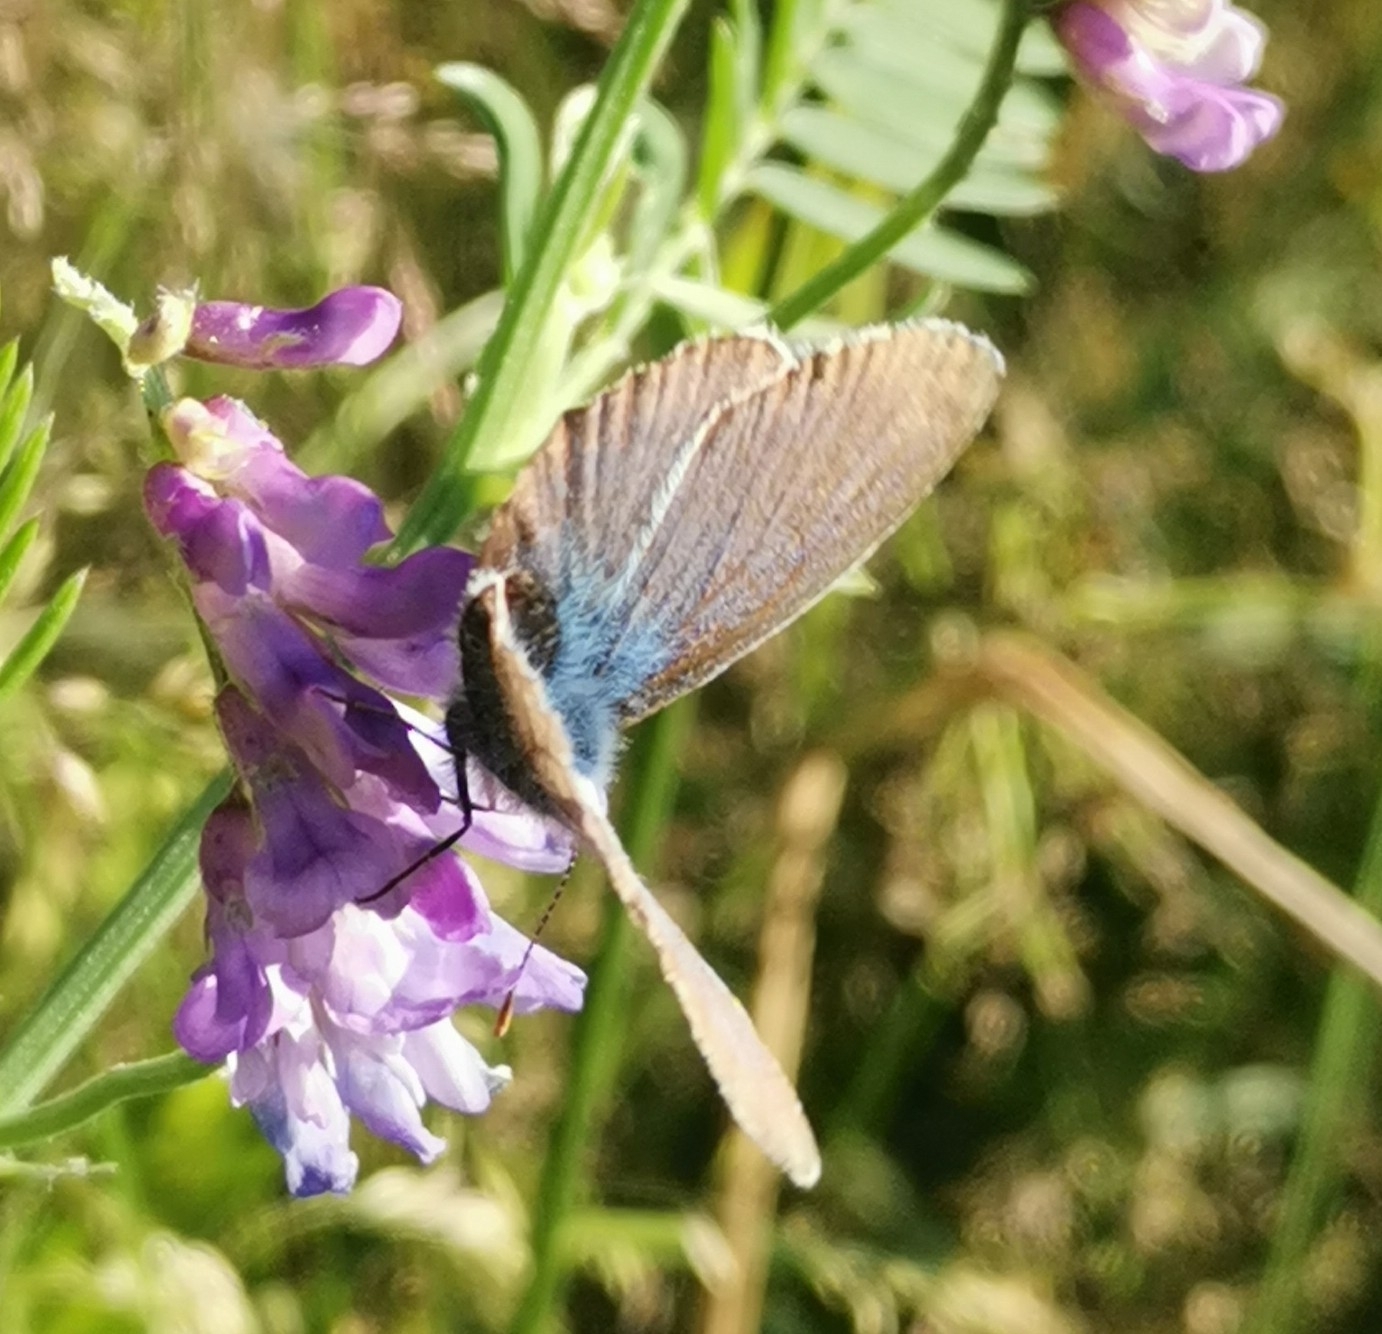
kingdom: Animalia
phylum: Arthropoda
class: Insecta
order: Lepidoptera
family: Lycaenidae
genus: Plebejus
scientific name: Plebejus amanda
